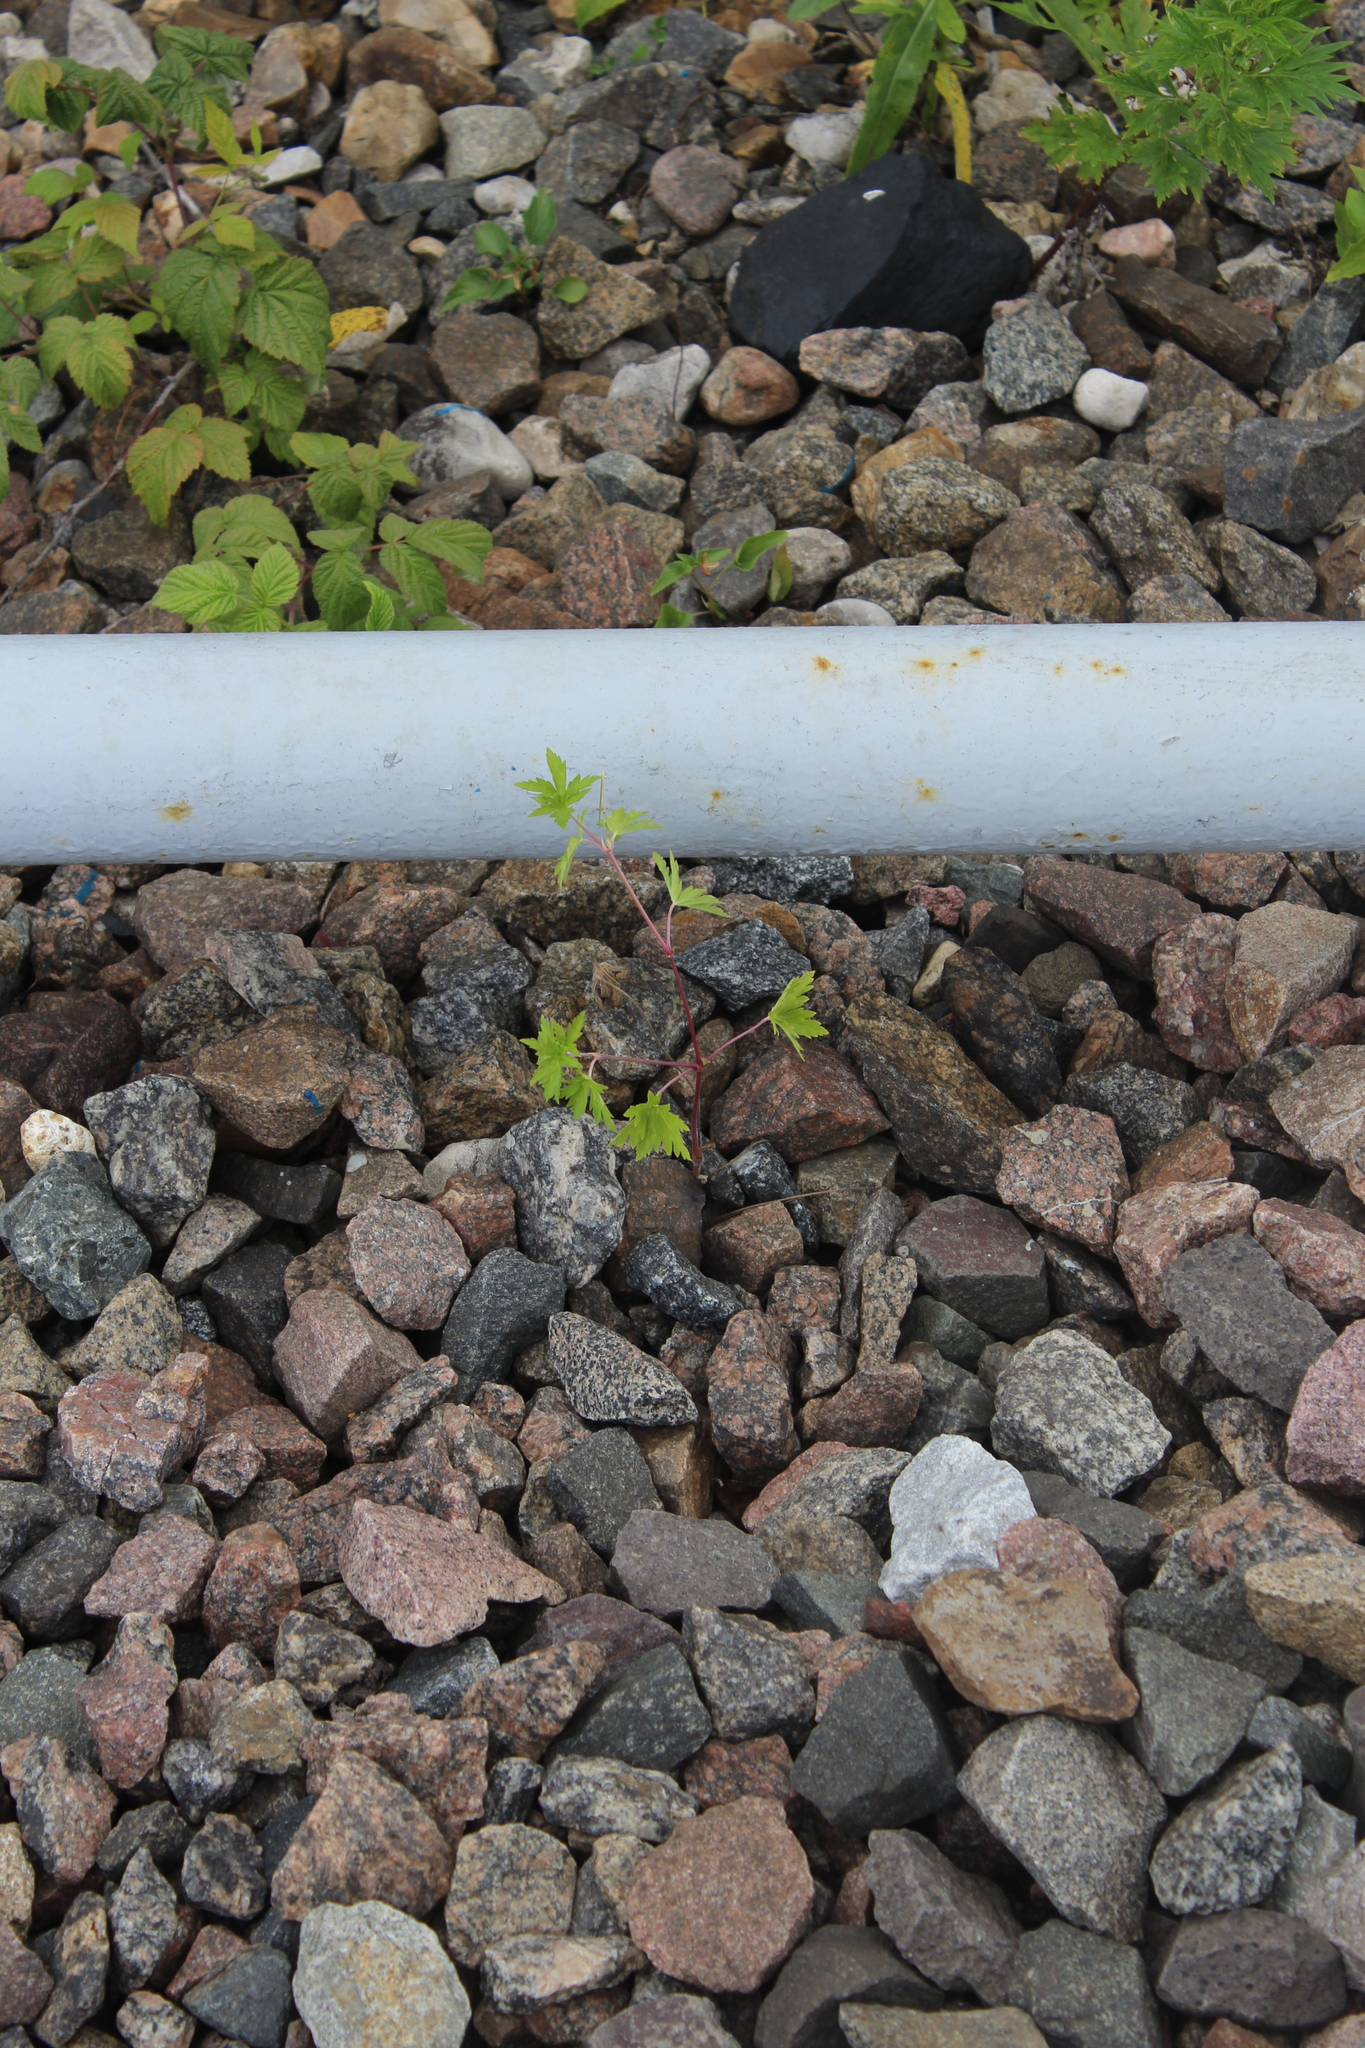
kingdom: Plantae
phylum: Tracheophyta
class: Magnoliopsida
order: Geraniales
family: Geraniaceae
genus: Geranium
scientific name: Geranium sibiricum
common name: Siberian crane's-bill
